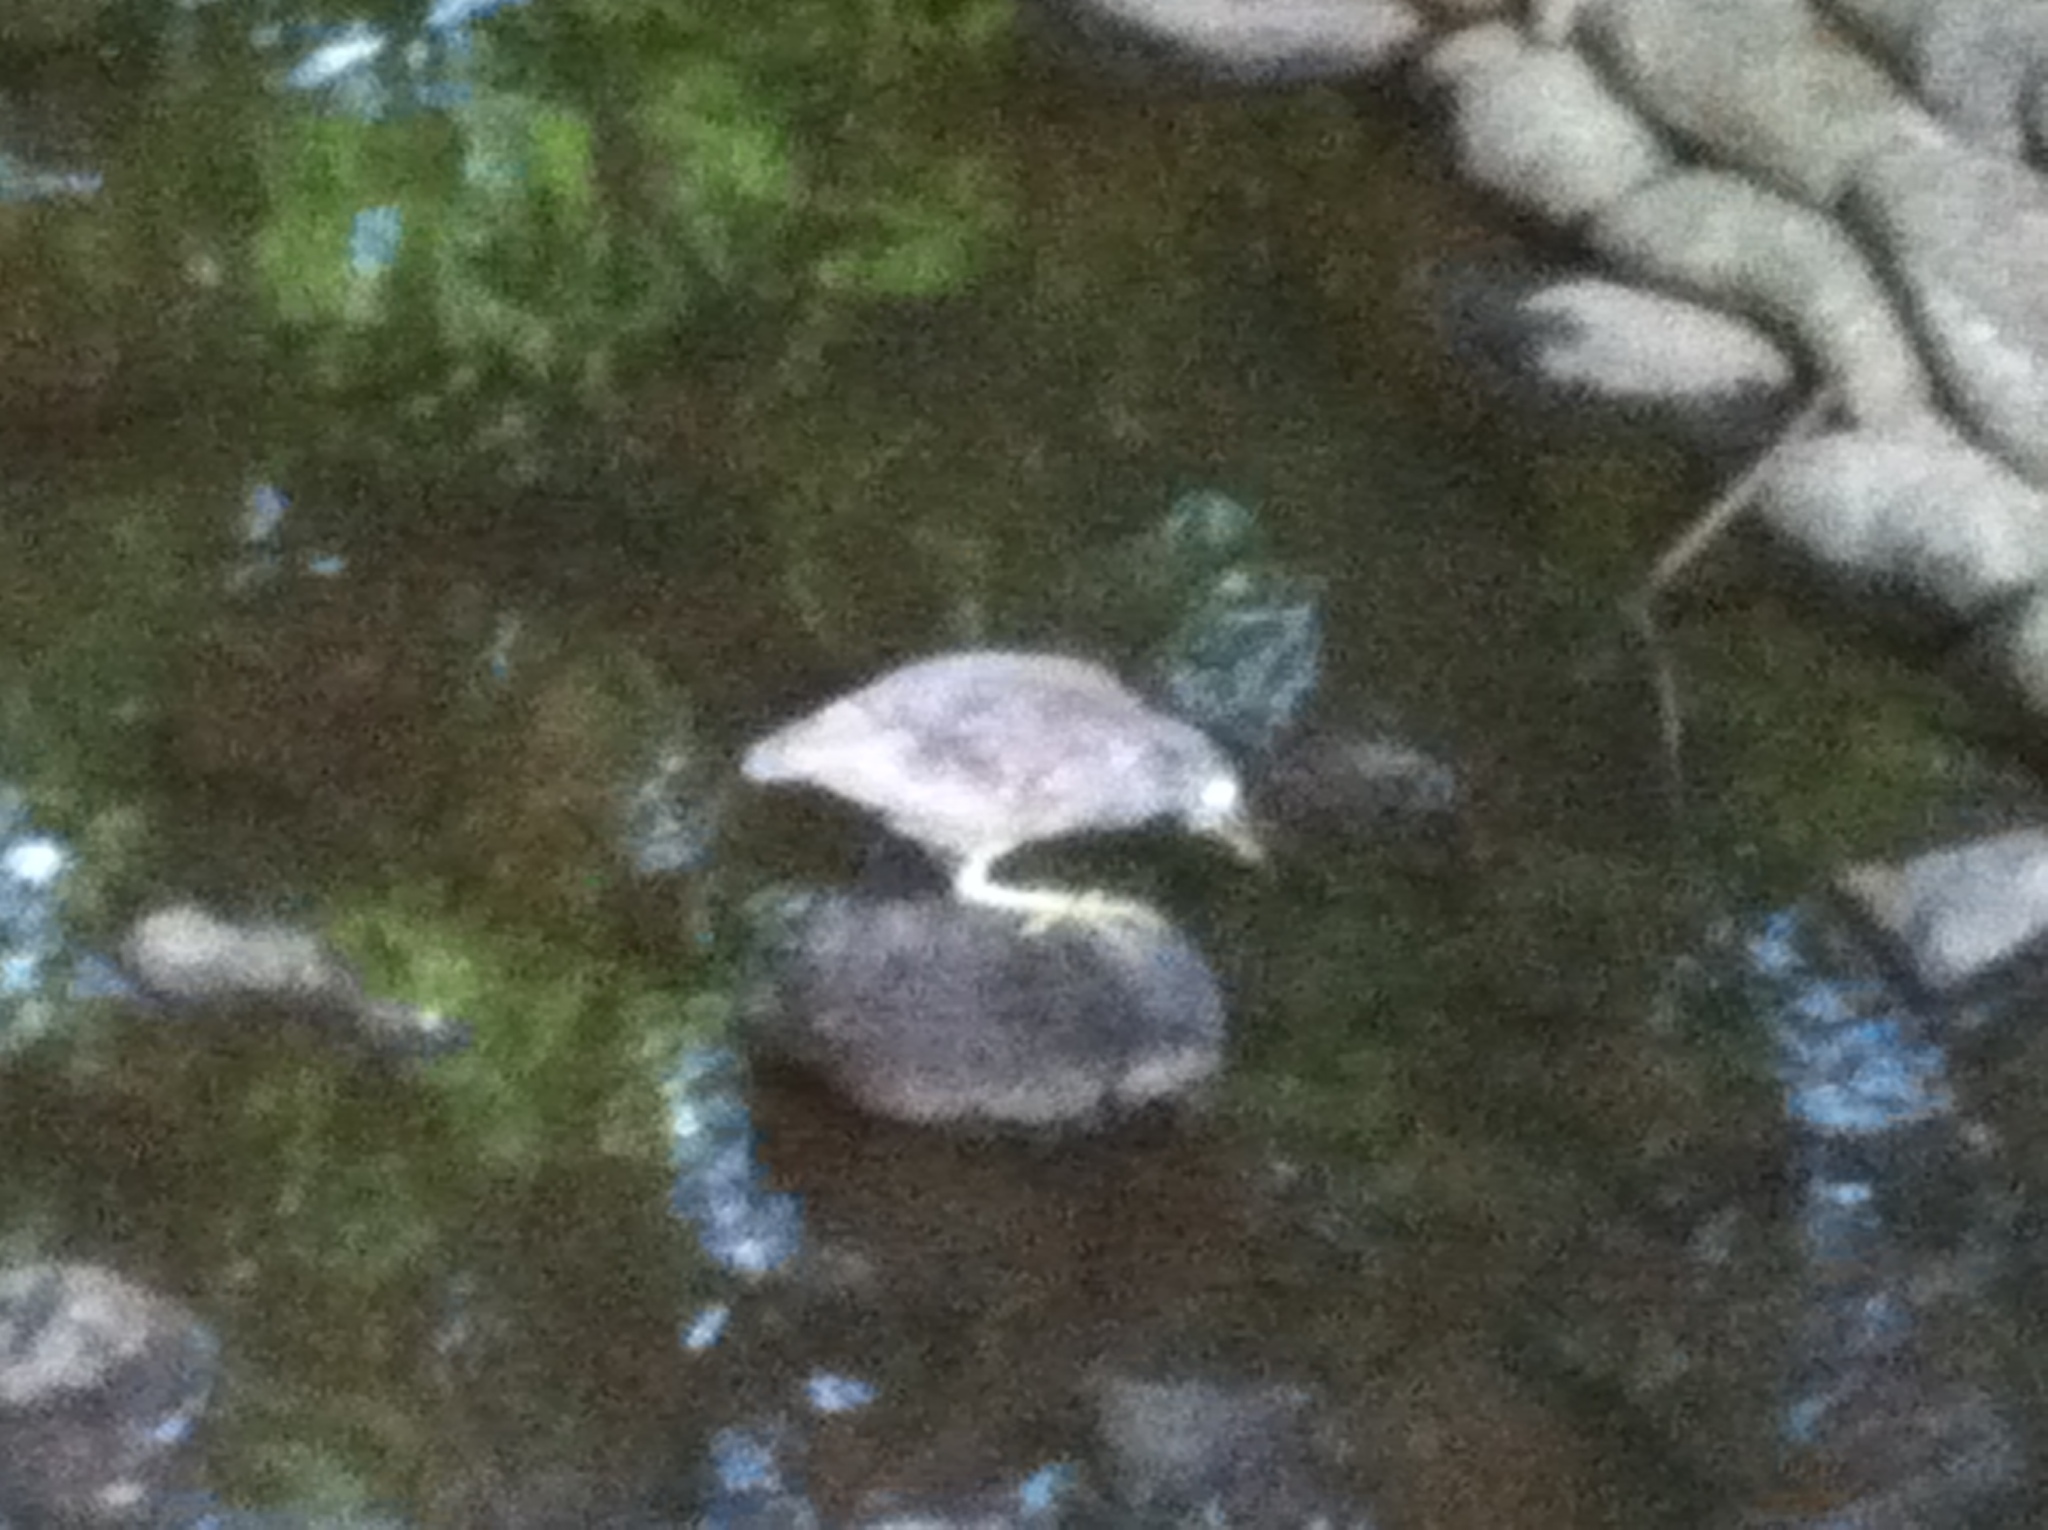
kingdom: Animalia
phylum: Chordata
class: Aves
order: Pelecaniformes
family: Ardeidae
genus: Nycticorax
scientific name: Nycticorax nycticorax
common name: Black-crowned night heron
